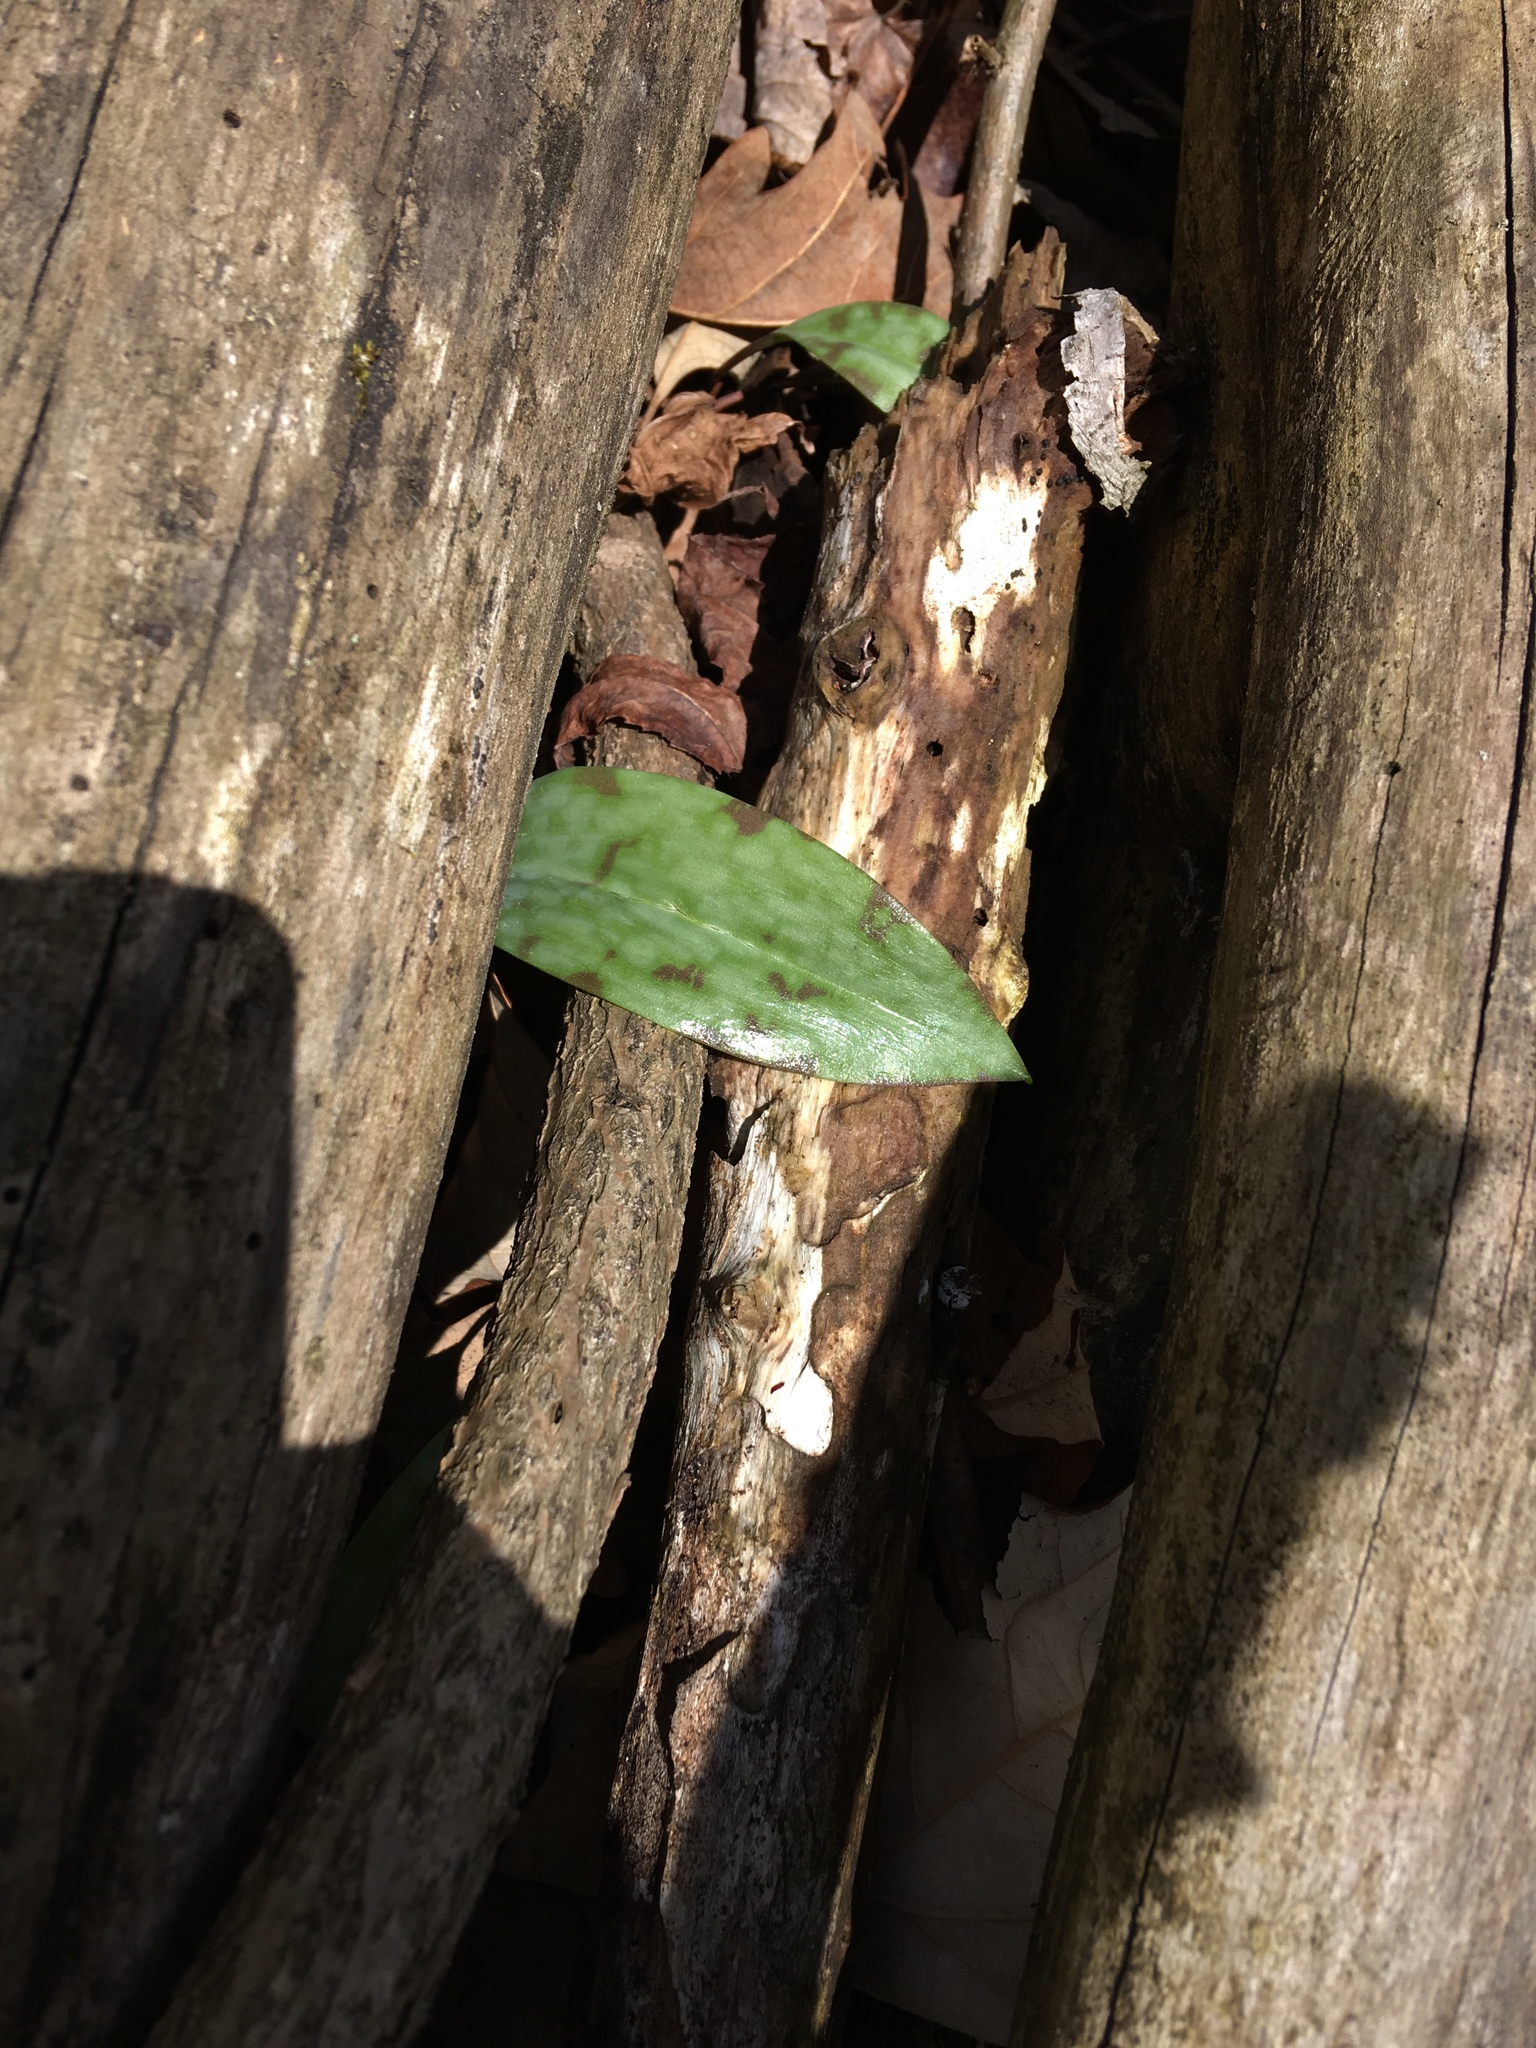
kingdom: Plantae
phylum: Tracheophyta
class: Liliopsida
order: Liliales
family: Liliaceae
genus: Erythronium
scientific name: Erythronium americanum
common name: Yellow adder's-tongue
